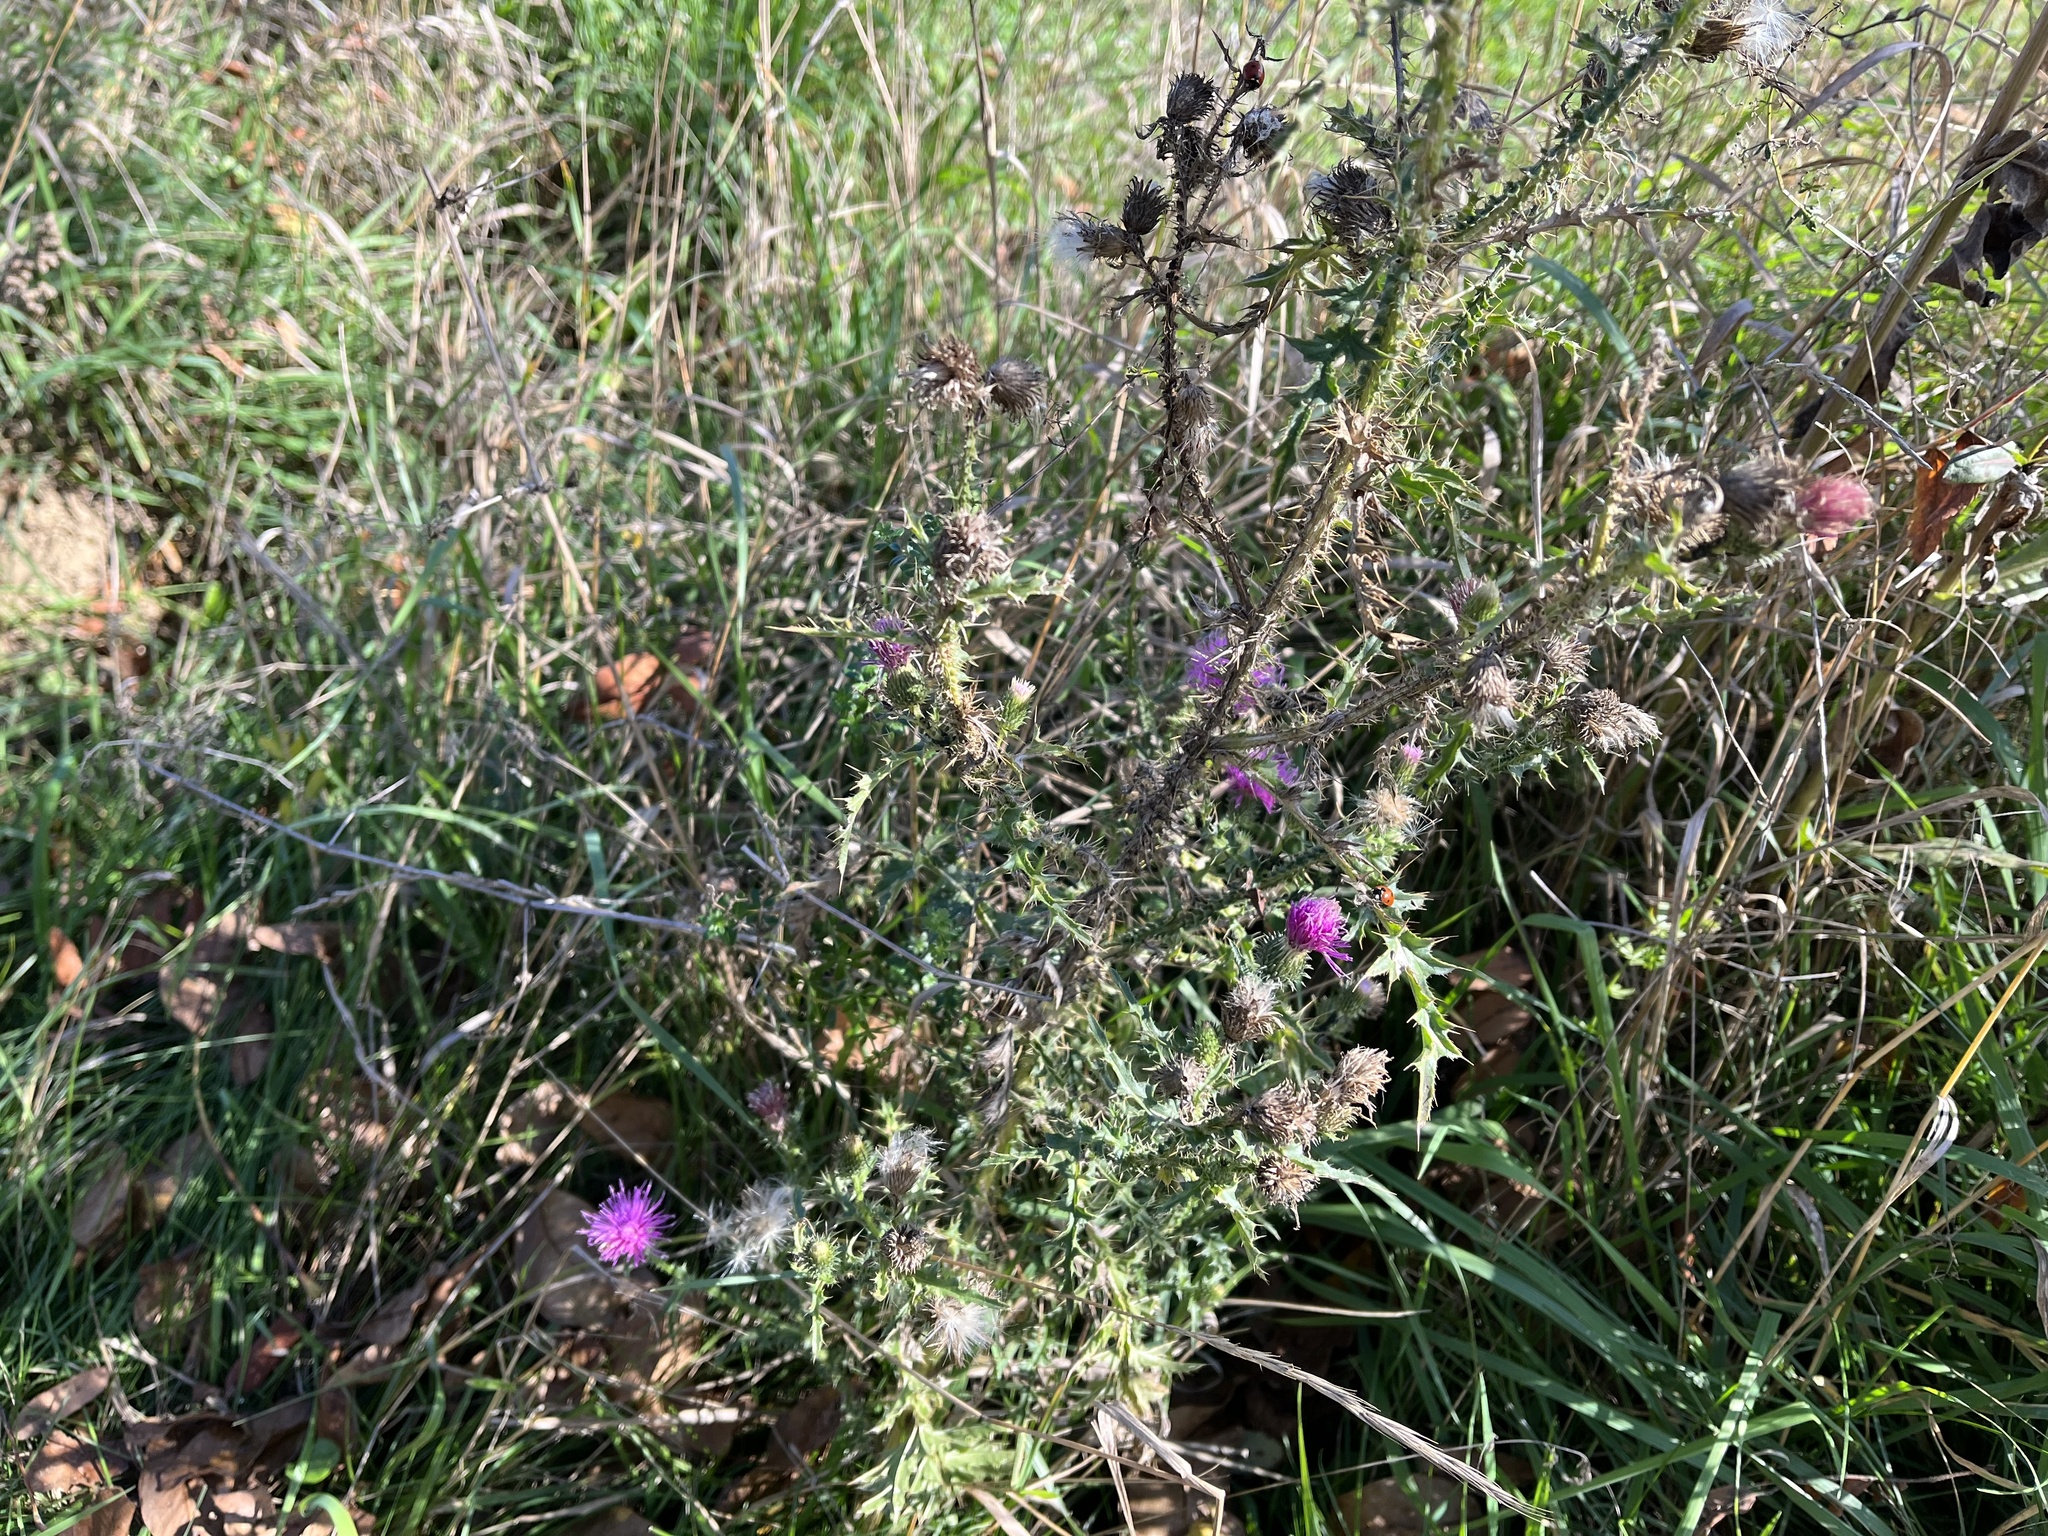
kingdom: Plantae
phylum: Tracheophyta
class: Magnoliopsida
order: Asterales
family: Asteraceae
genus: Carduus
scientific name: Carduus acanthoides
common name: Plumeless thistle
